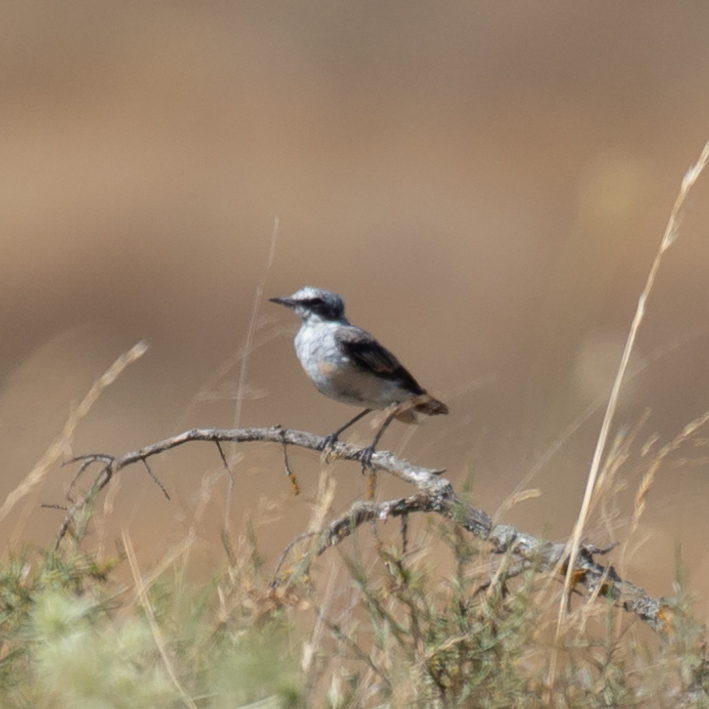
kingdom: Animalia
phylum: Chordata
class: Aves
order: Passeriformes
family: Muscicapidae
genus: Oenanthe
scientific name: Oenanthe oenanthe
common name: Northern wheatear
